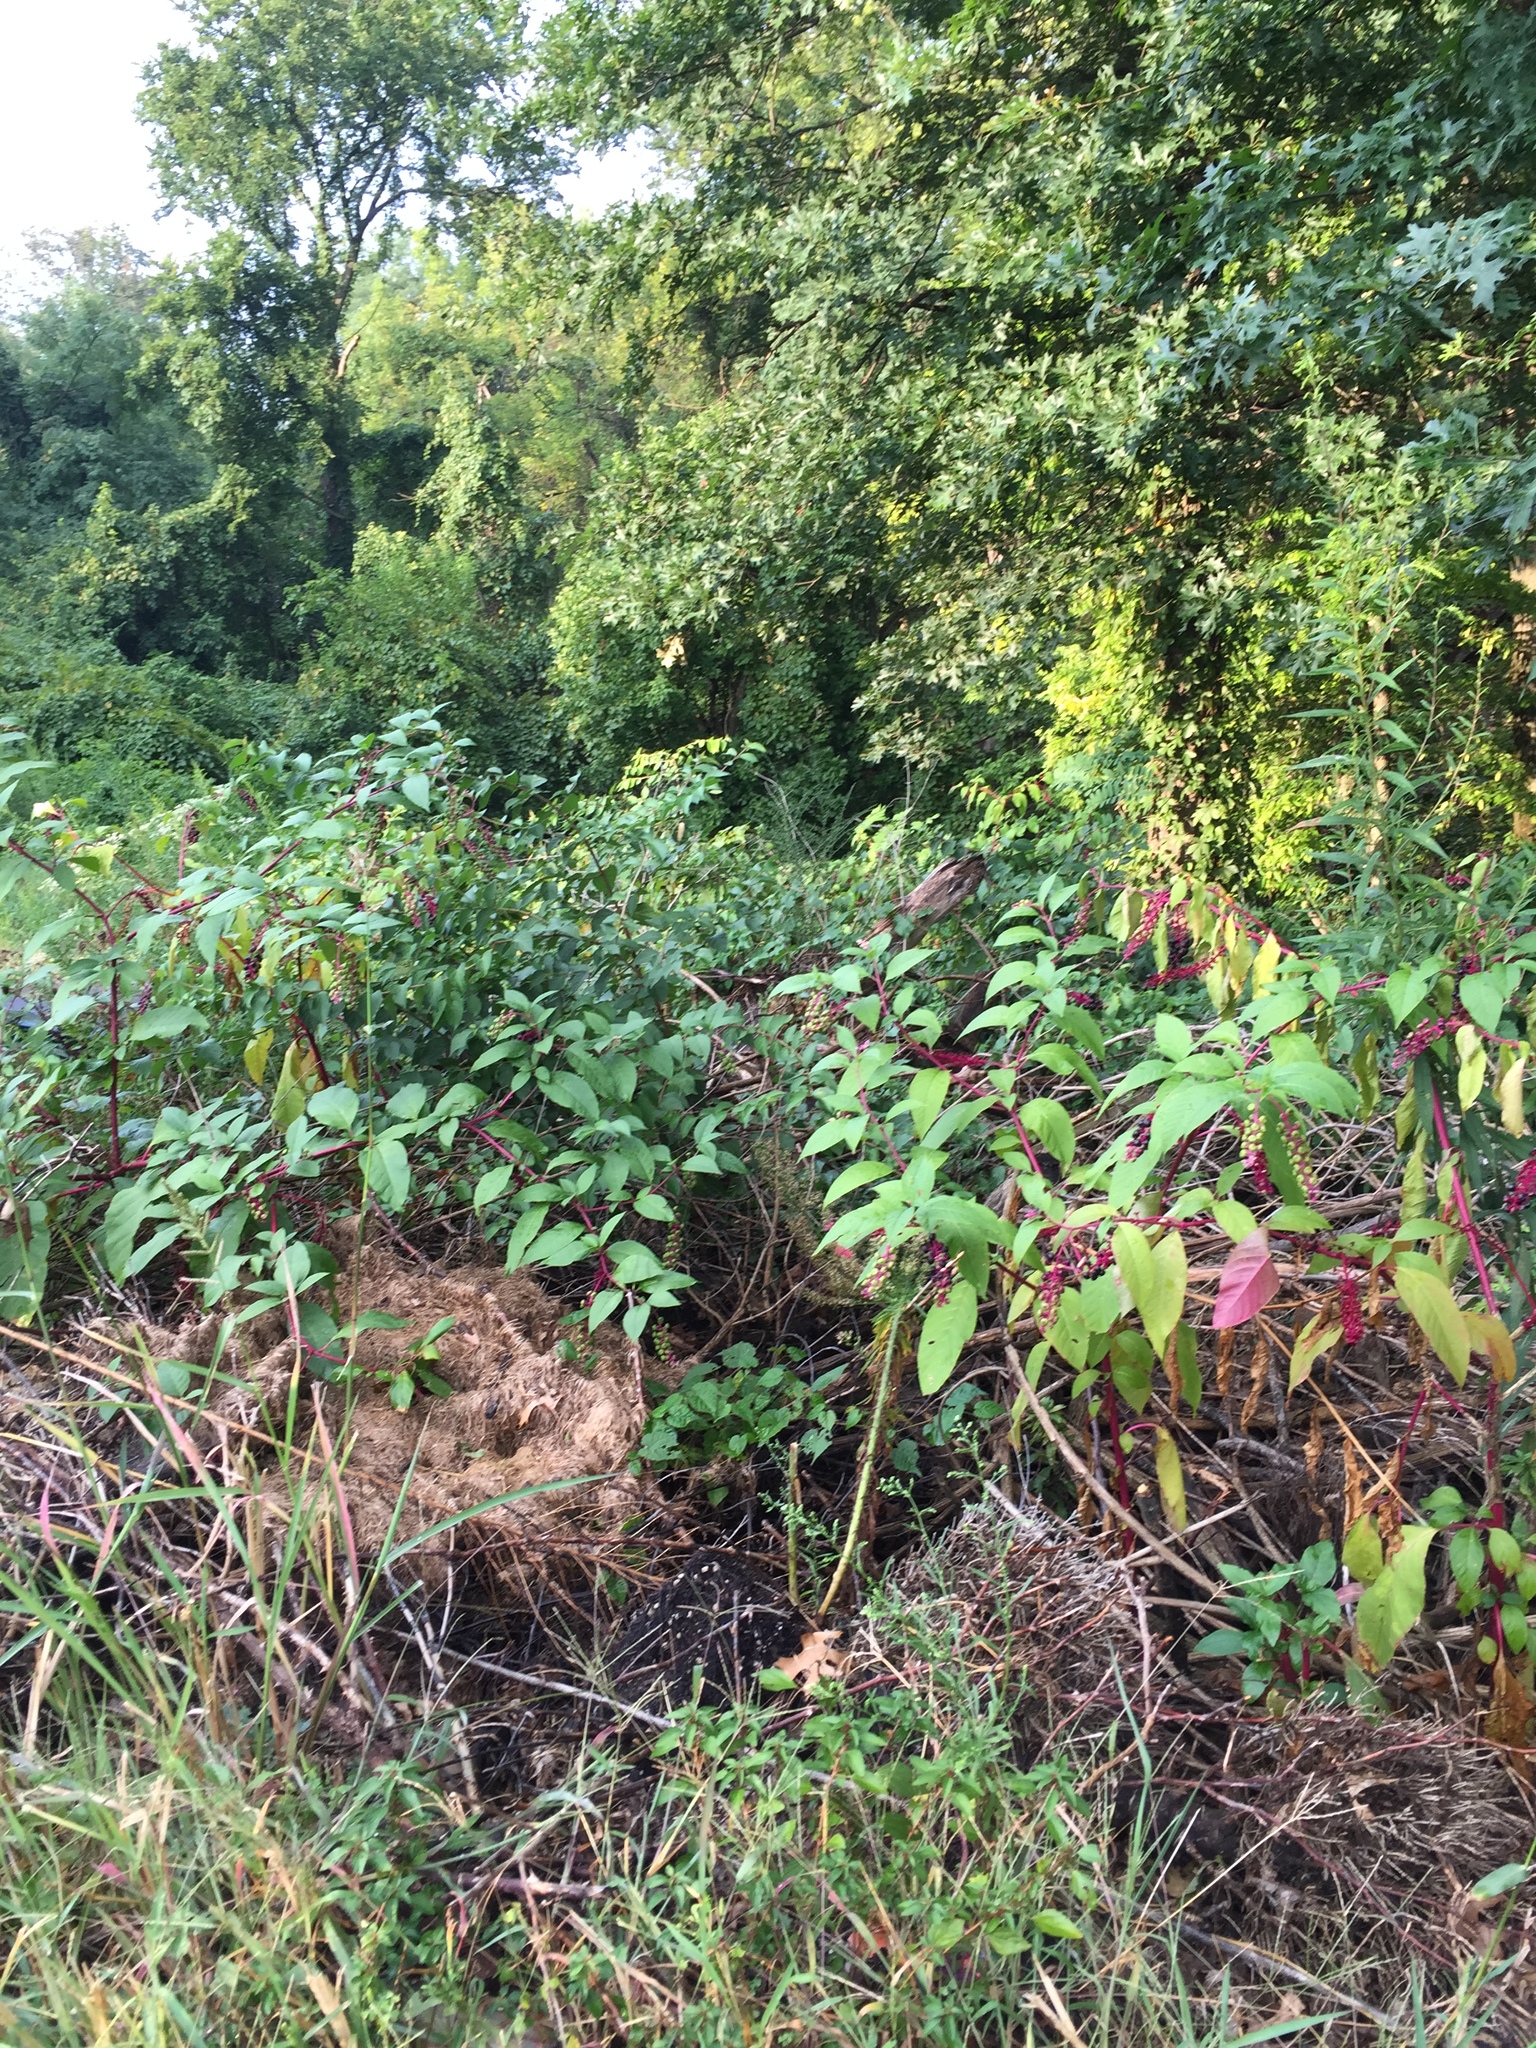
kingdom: Plantae
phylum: Tracheophyta
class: Magnoliopsida
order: Caryophyllales
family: Phytolaccaceae
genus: Phytolacca
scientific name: Phytolacca americana
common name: American pokeweed
